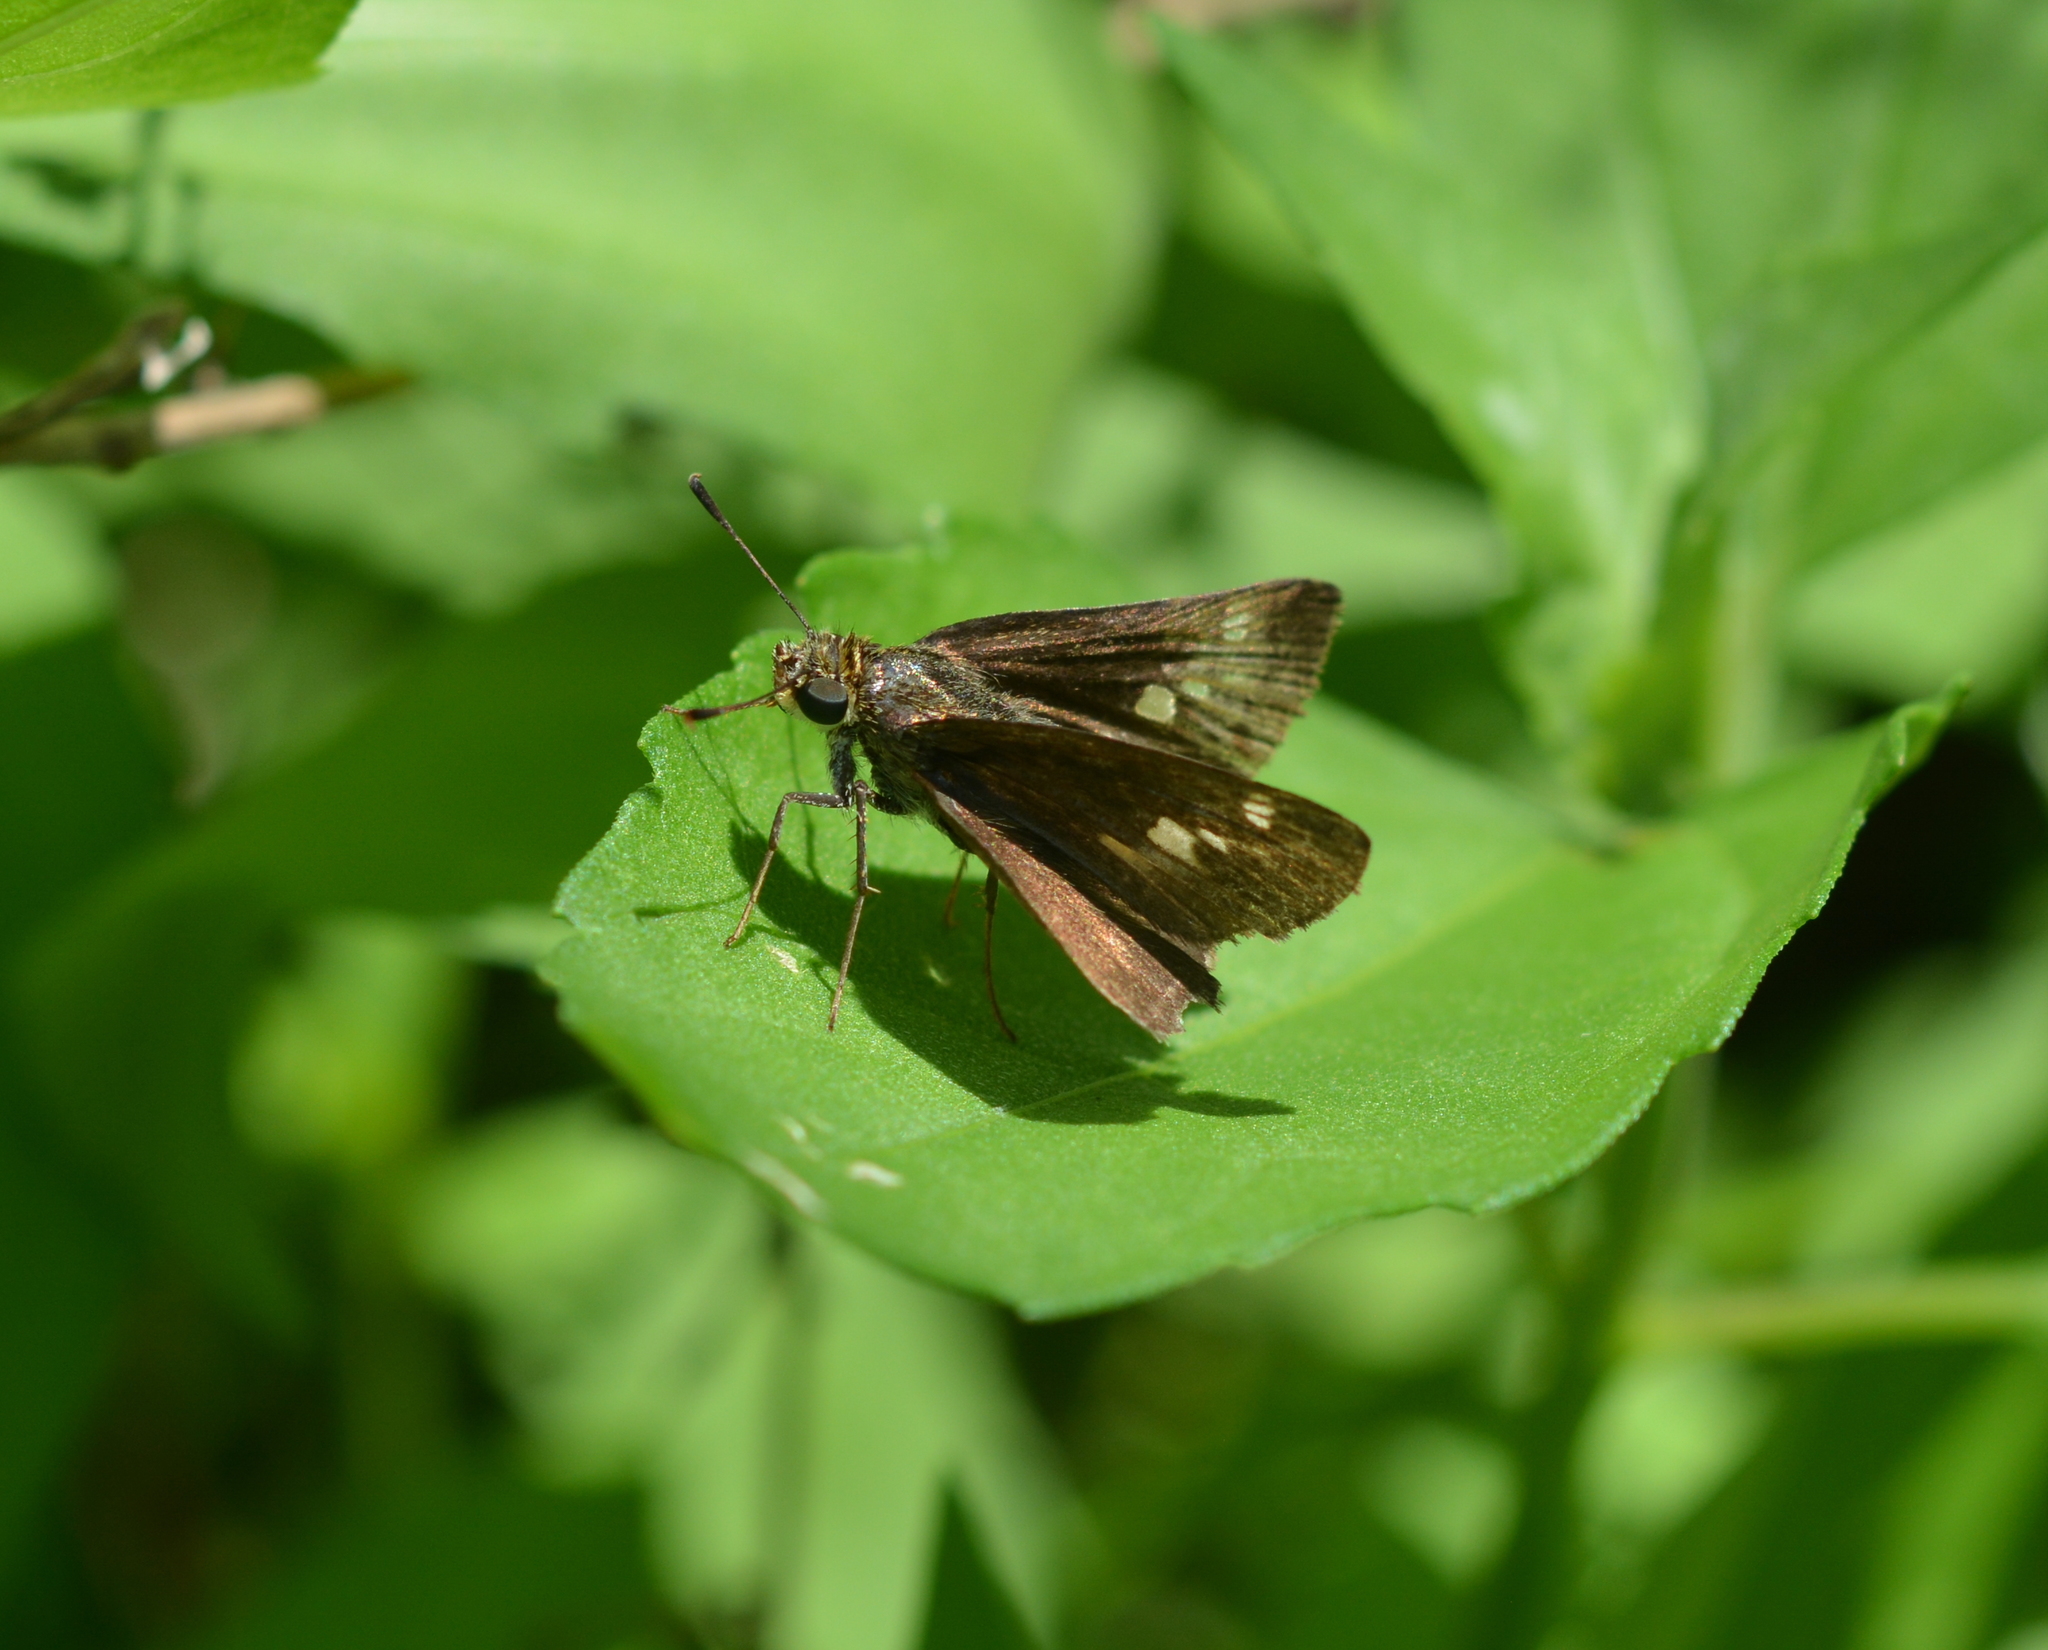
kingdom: Animalia
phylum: Arthropoda
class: Insecta
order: Lepidoptera
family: Hesperiidae
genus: Vernia
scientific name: Vernia verna
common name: Little glassywing
